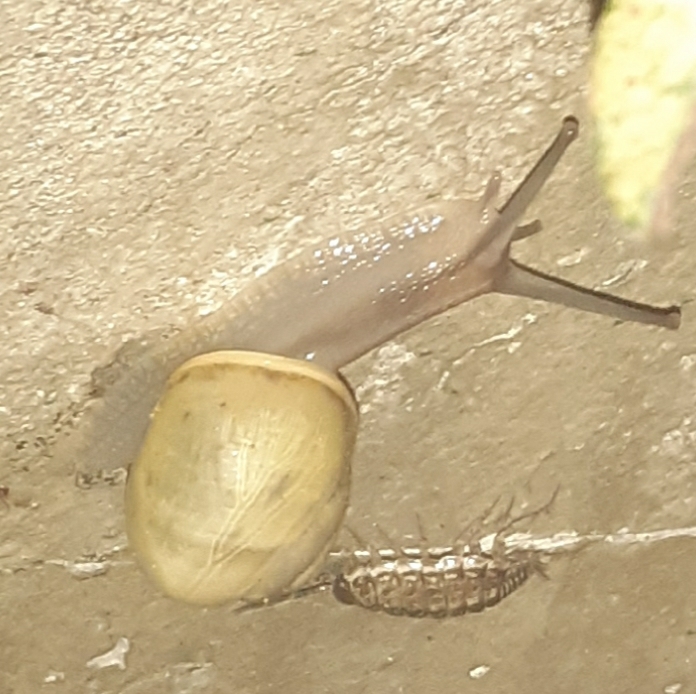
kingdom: Animalia
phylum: Mollusca
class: Gastropoda
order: Stylommatophora
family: Helicidae
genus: Cepaea
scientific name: Cepaea
